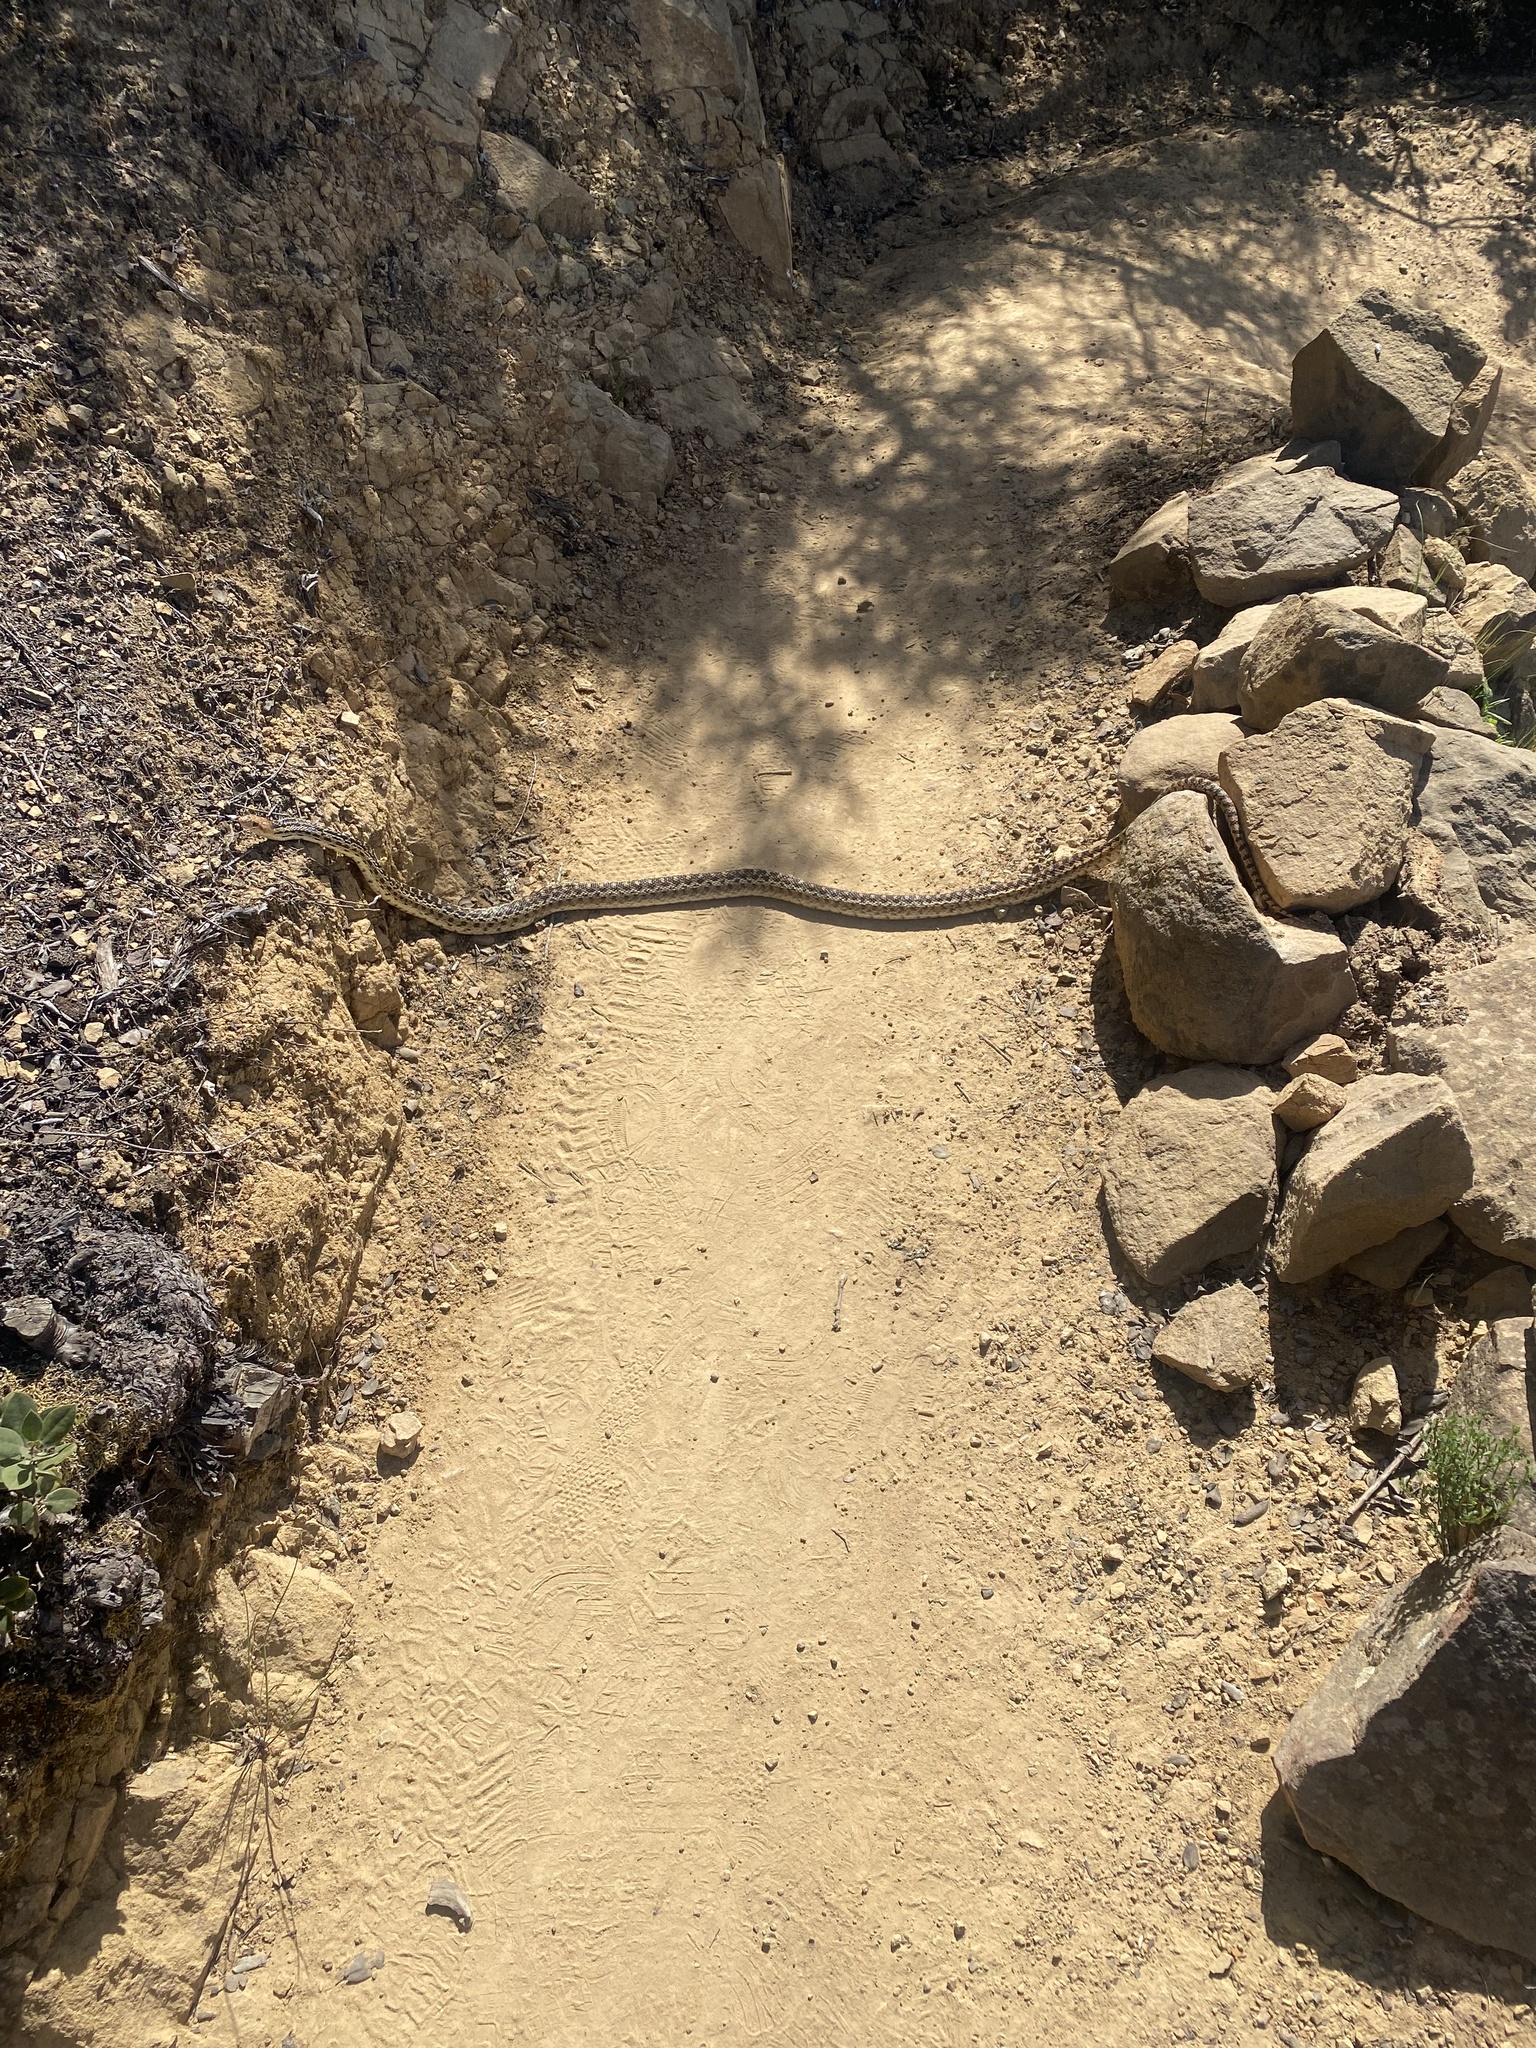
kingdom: Animalia
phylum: Chordata
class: Squamata
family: Colubridae
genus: Pituophis
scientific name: Pituophis catenifer
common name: Gopher snake
